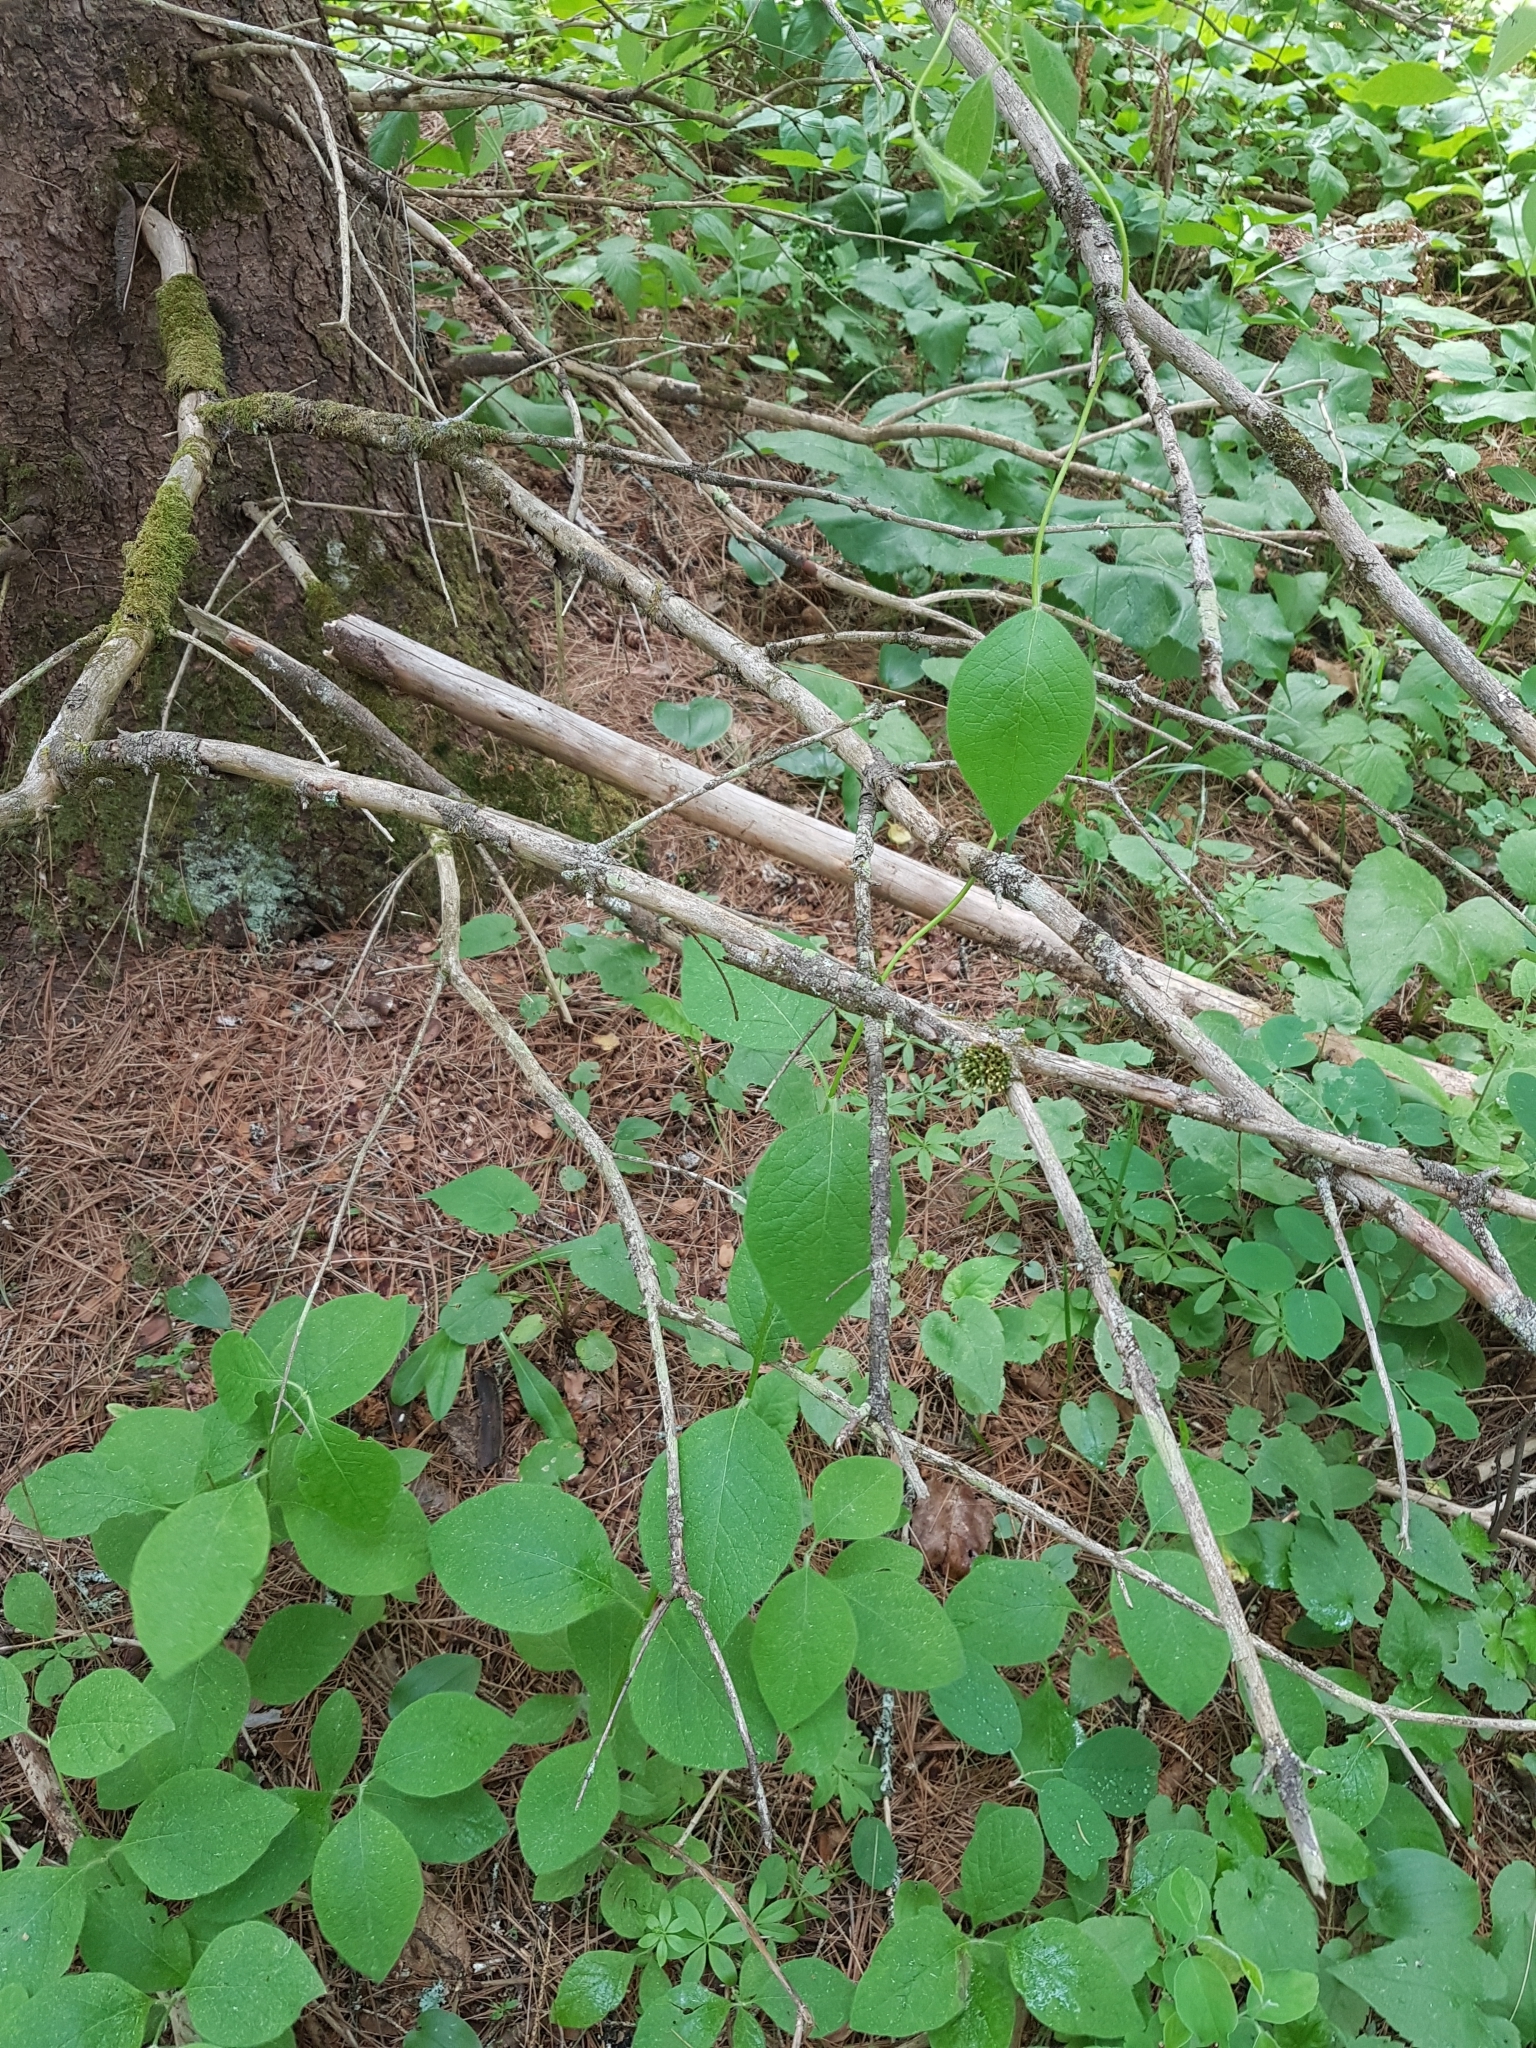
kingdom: Plantae
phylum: Tracheophyta
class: Magnoliopsida
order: Dipsacales
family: Caprifoliaceae
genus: Lonicera
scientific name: Lonicera hirsuta
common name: Hairy honeysuckle
